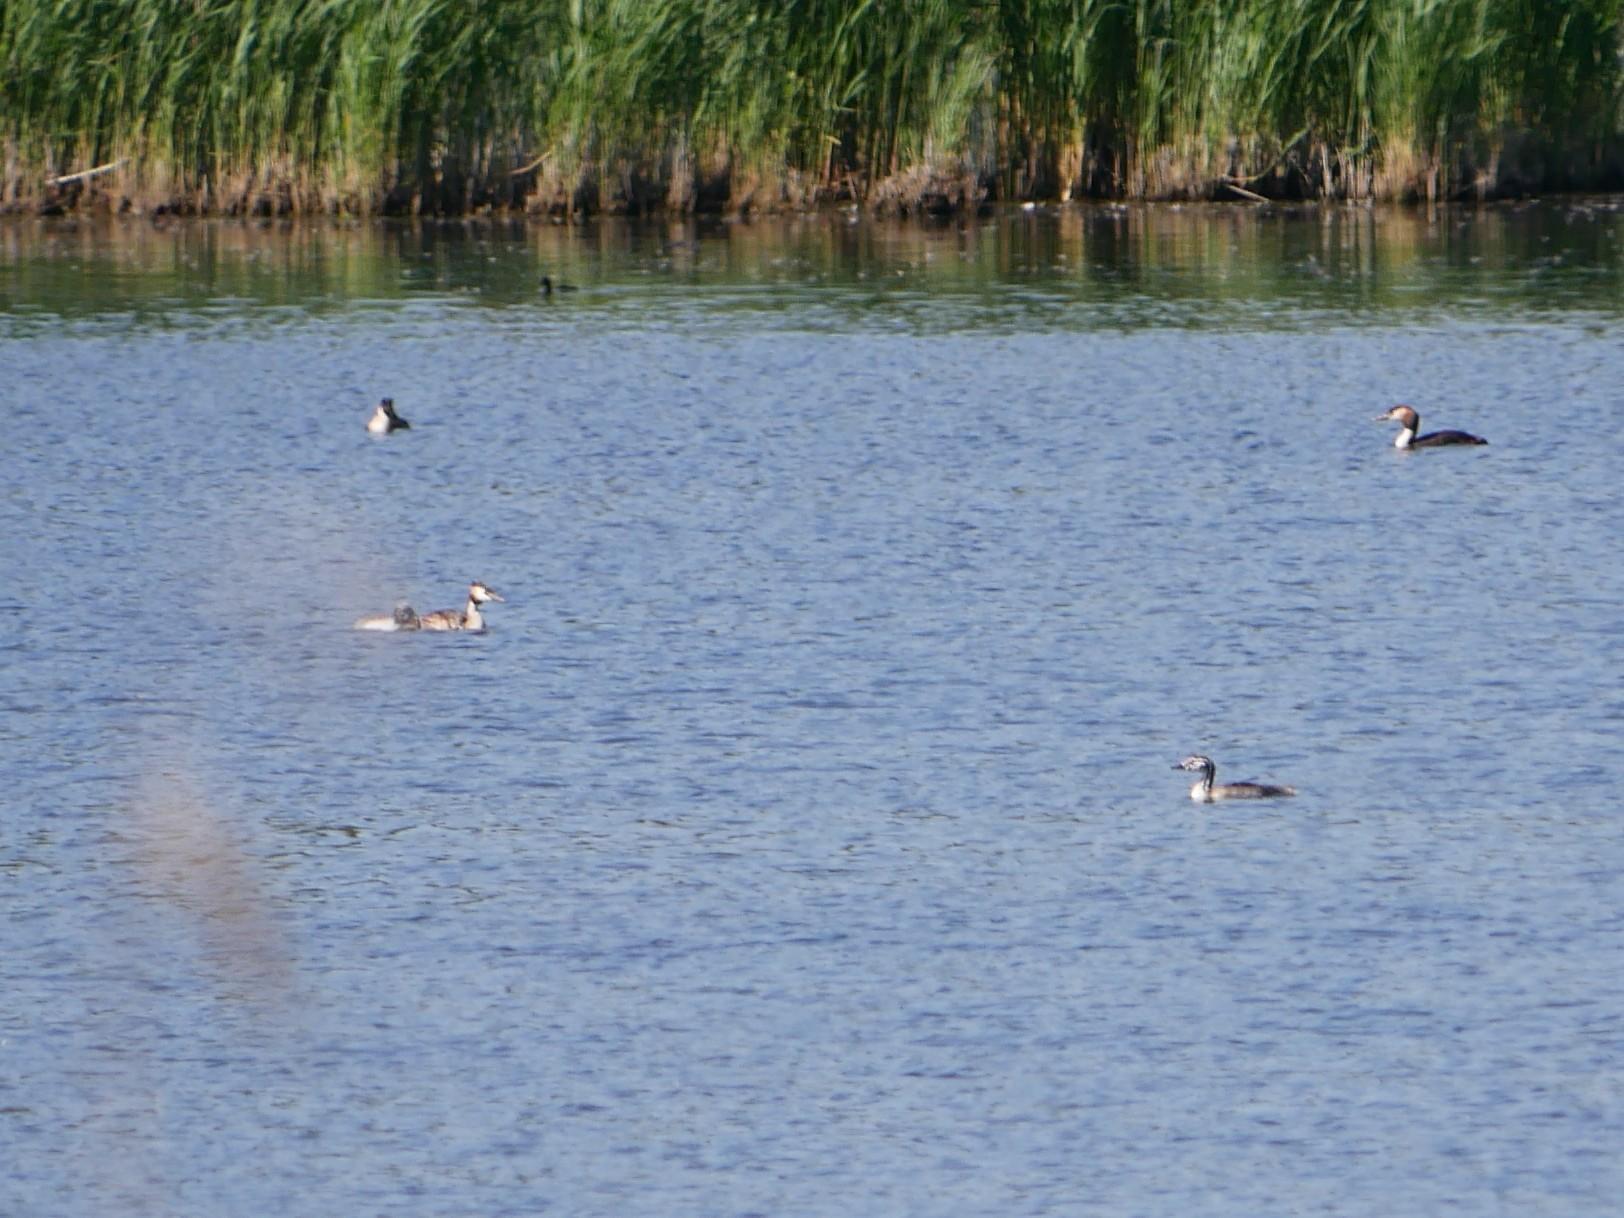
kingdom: Animalia
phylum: Chordata
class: Aves
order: Podicipediformes
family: Podicipedidae
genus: Podiceps
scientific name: Podiceps cristatus
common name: Great crested grebe
